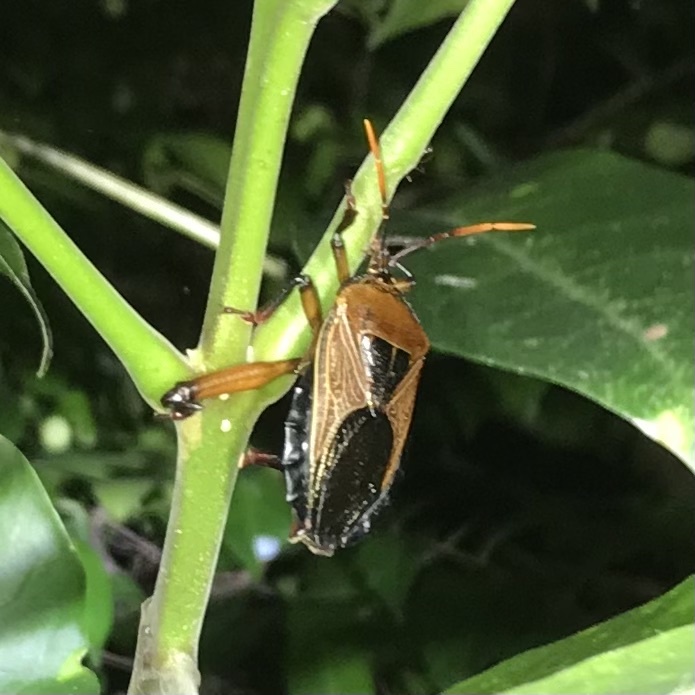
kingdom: Animalia
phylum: Arthropoda
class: Insecta
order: Hemiptera
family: Tessaratomidae
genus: Rhoecus
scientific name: Rhoecus australasiae
